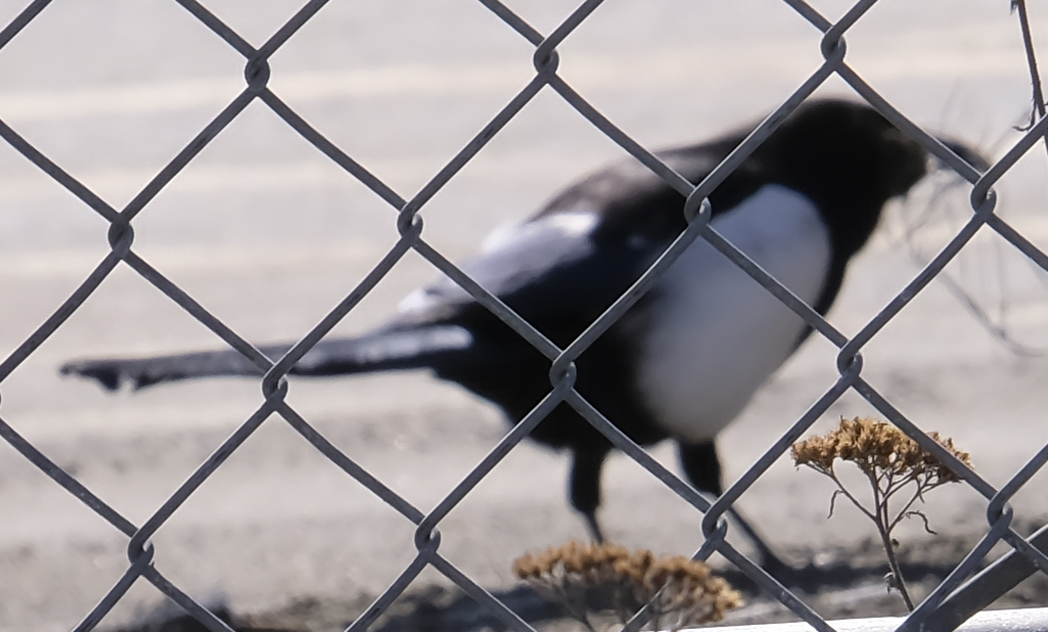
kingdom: Animalia
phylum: Chordata
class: Aves
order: Passeriformes
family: Corvidae
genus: Pica
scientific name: Pica hudsonia
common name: Black-billed magpie
